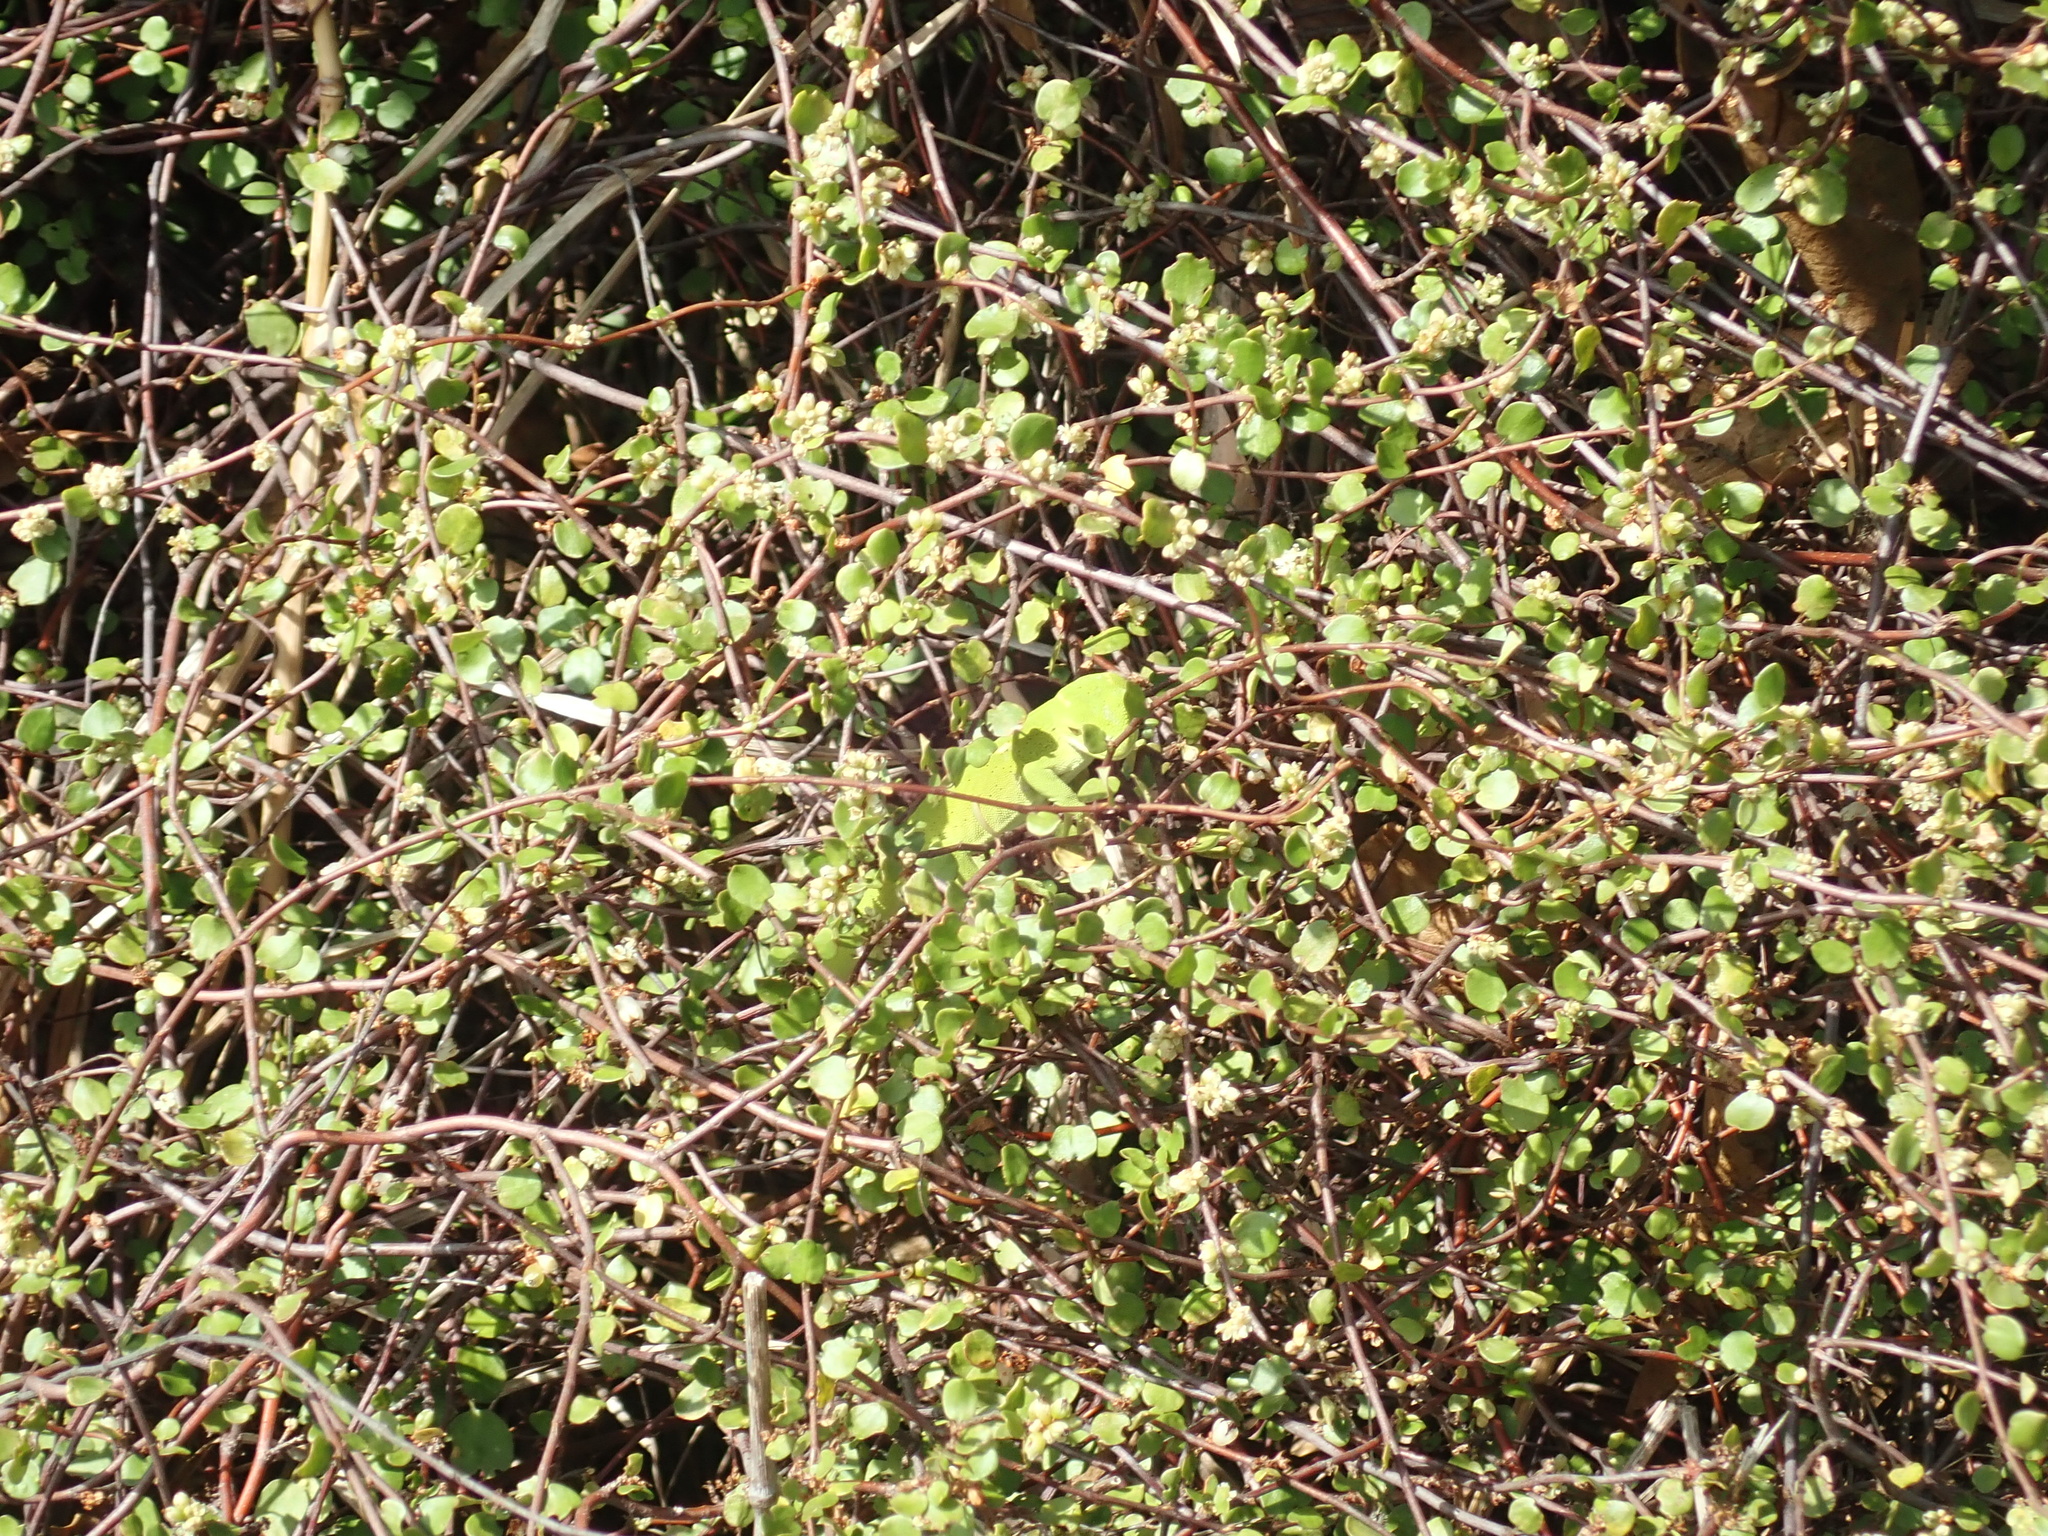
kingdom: Animalia
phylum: Chordata
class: Squamata
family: Diplodactylidae
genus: Naultinus
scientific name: Naultinus punctatus
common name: Wellington green gecko
